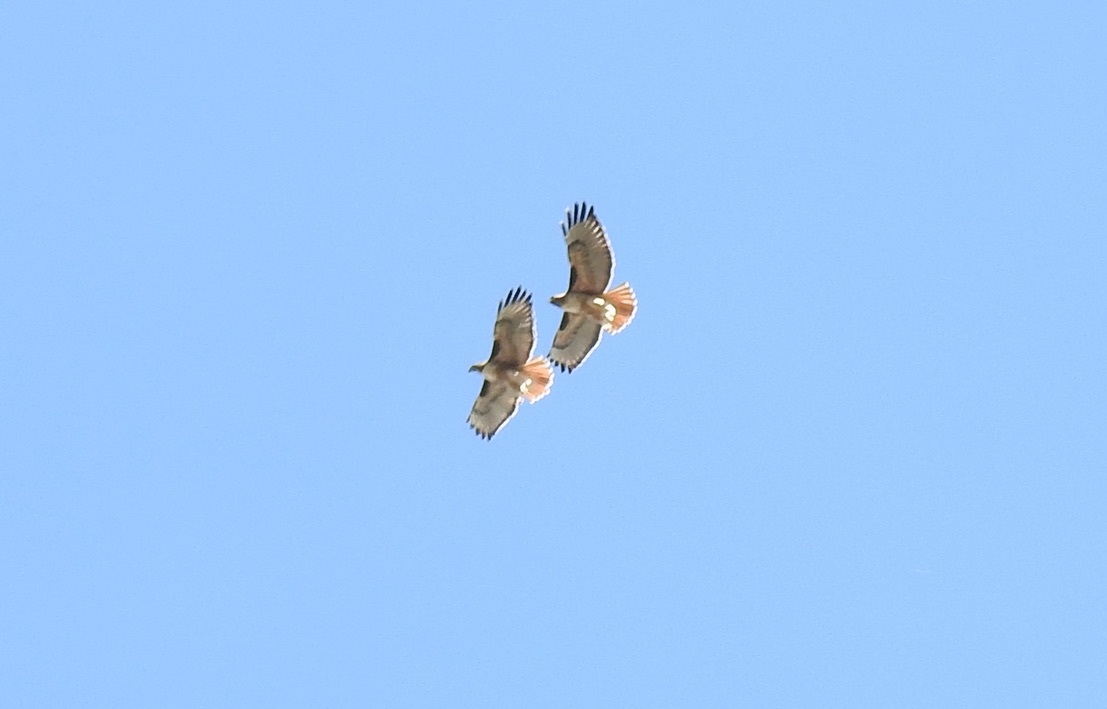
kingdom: Animalia
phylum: Chordata
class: Aves
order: Accipitriformes
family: Accipitridae
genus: Buteo
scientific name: Buteo jamaicensis
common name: Red-tailed hawk
